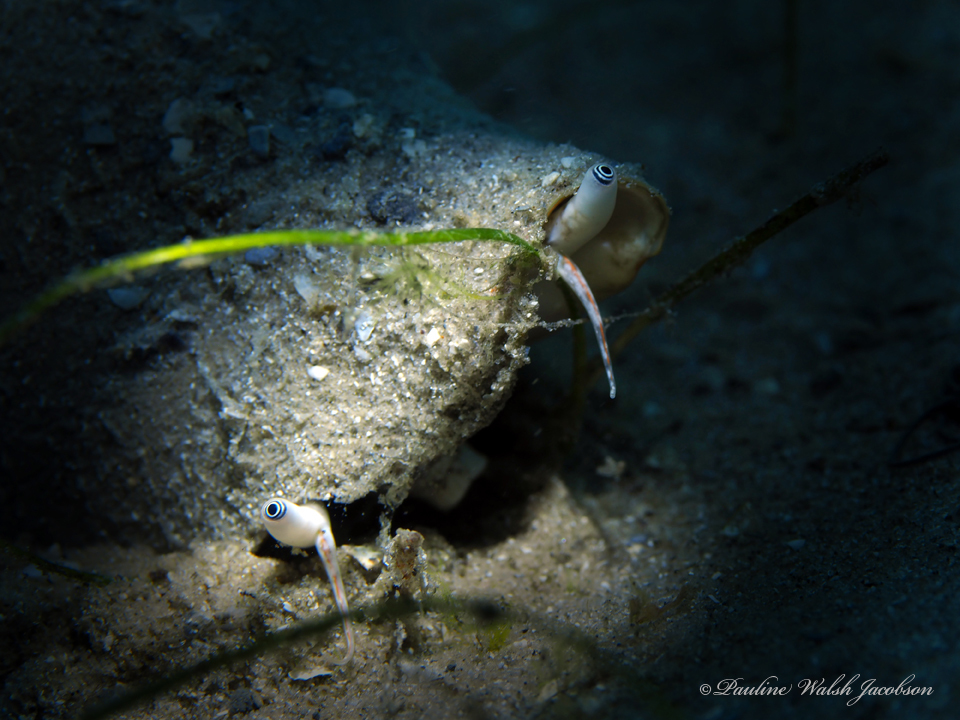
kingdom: Animalia
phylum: Mollusca
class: Gastropoda
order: Littorinimorpha
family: Strombidae
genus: Strombus
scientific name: Strombus alatus
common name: Florida fighting conch
